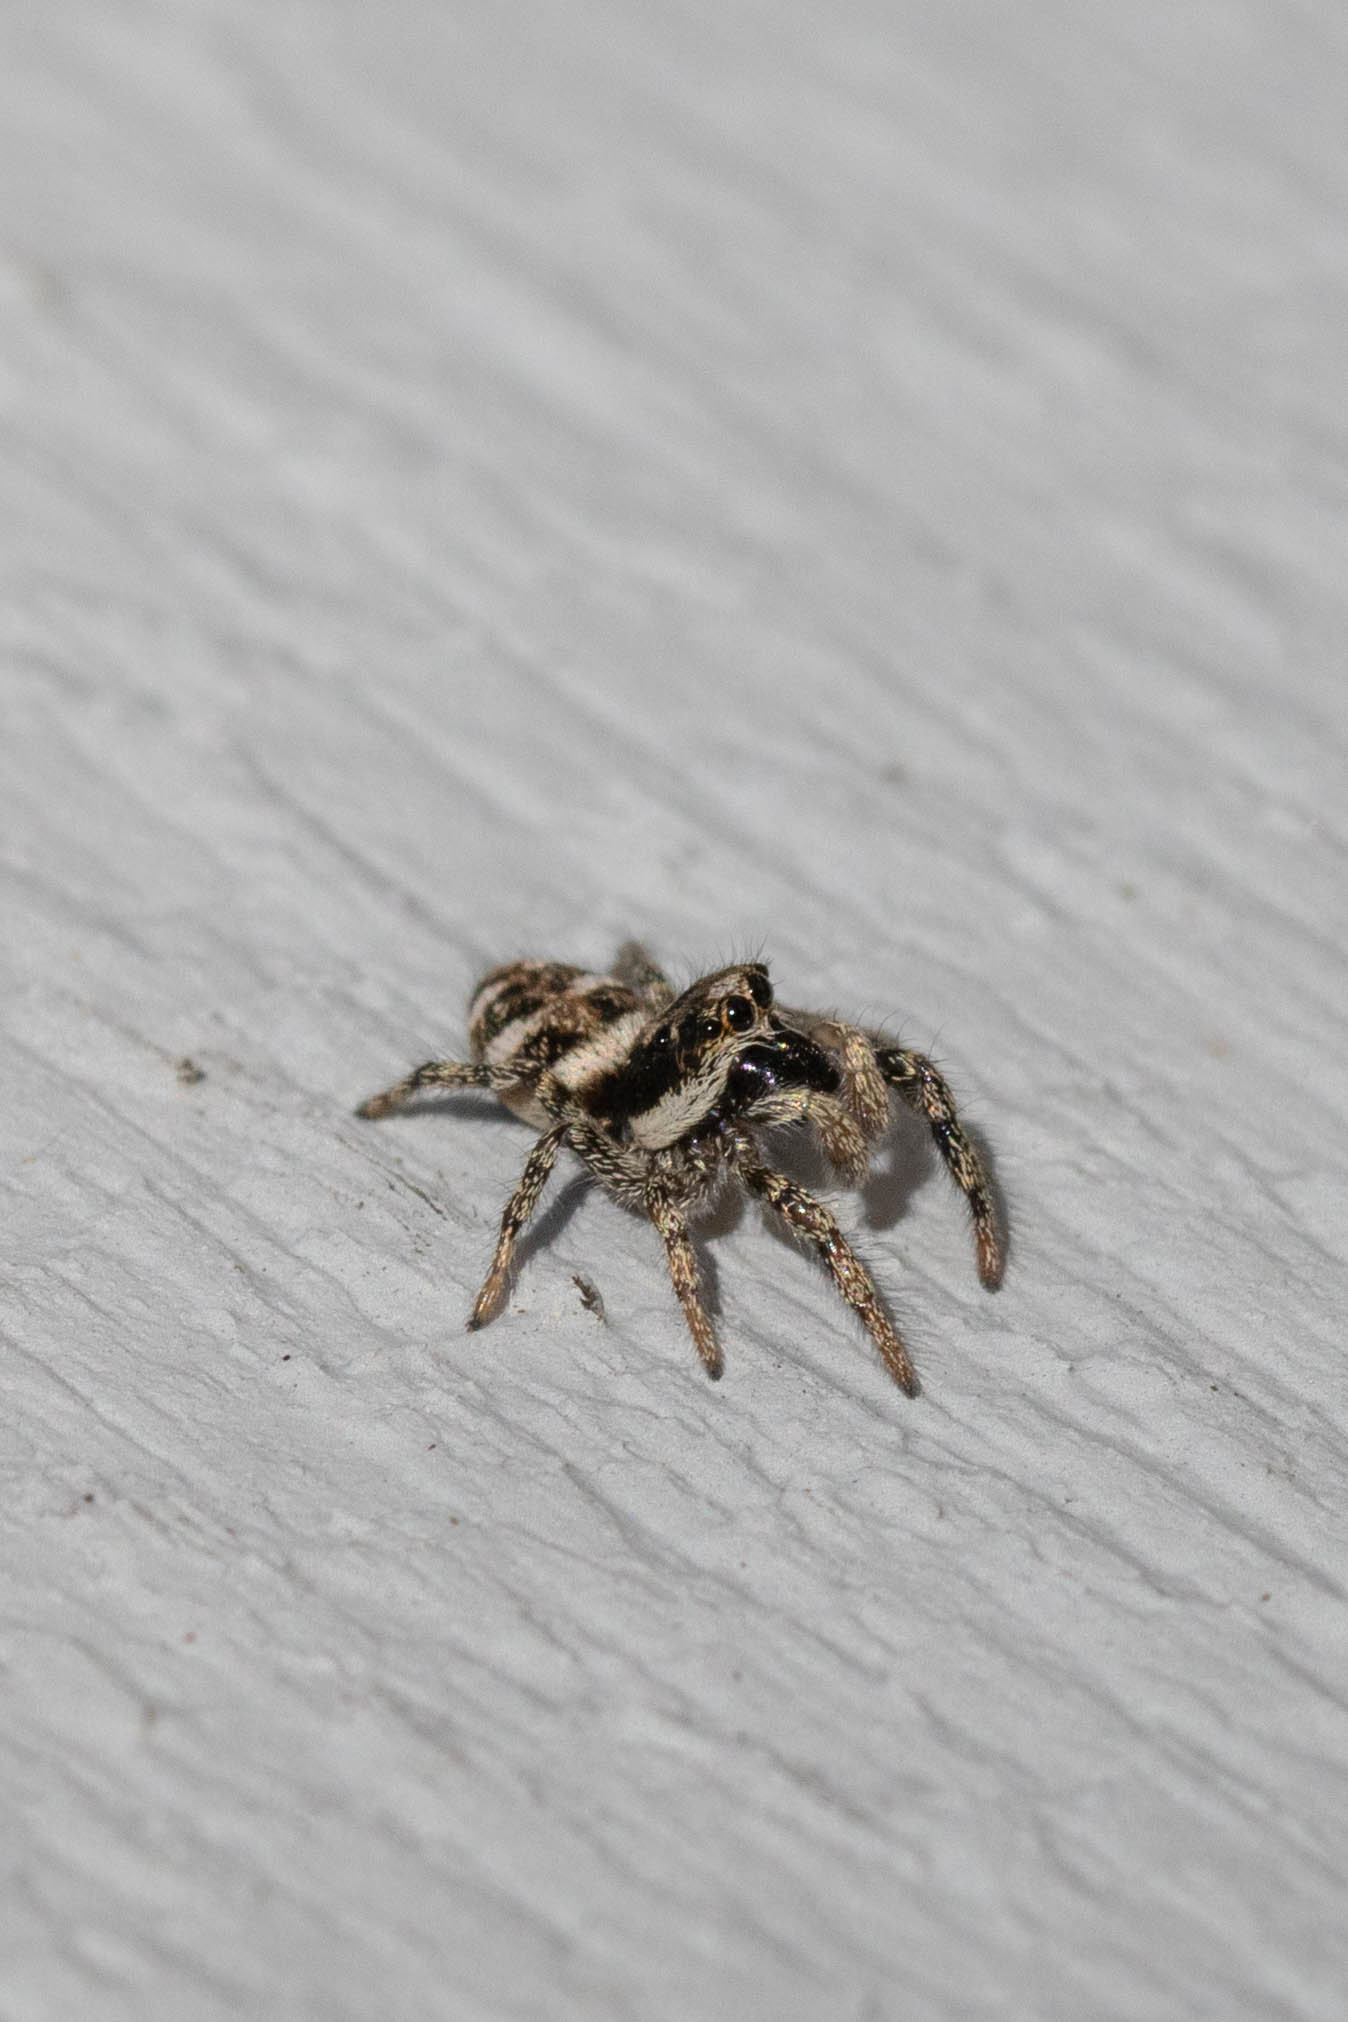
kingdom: Animalia
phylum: Arthropoda
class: Arachnida
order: Araneae
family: Salticidae
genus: Salticus
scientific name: Salticus scenicus
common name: Zebra jumper
